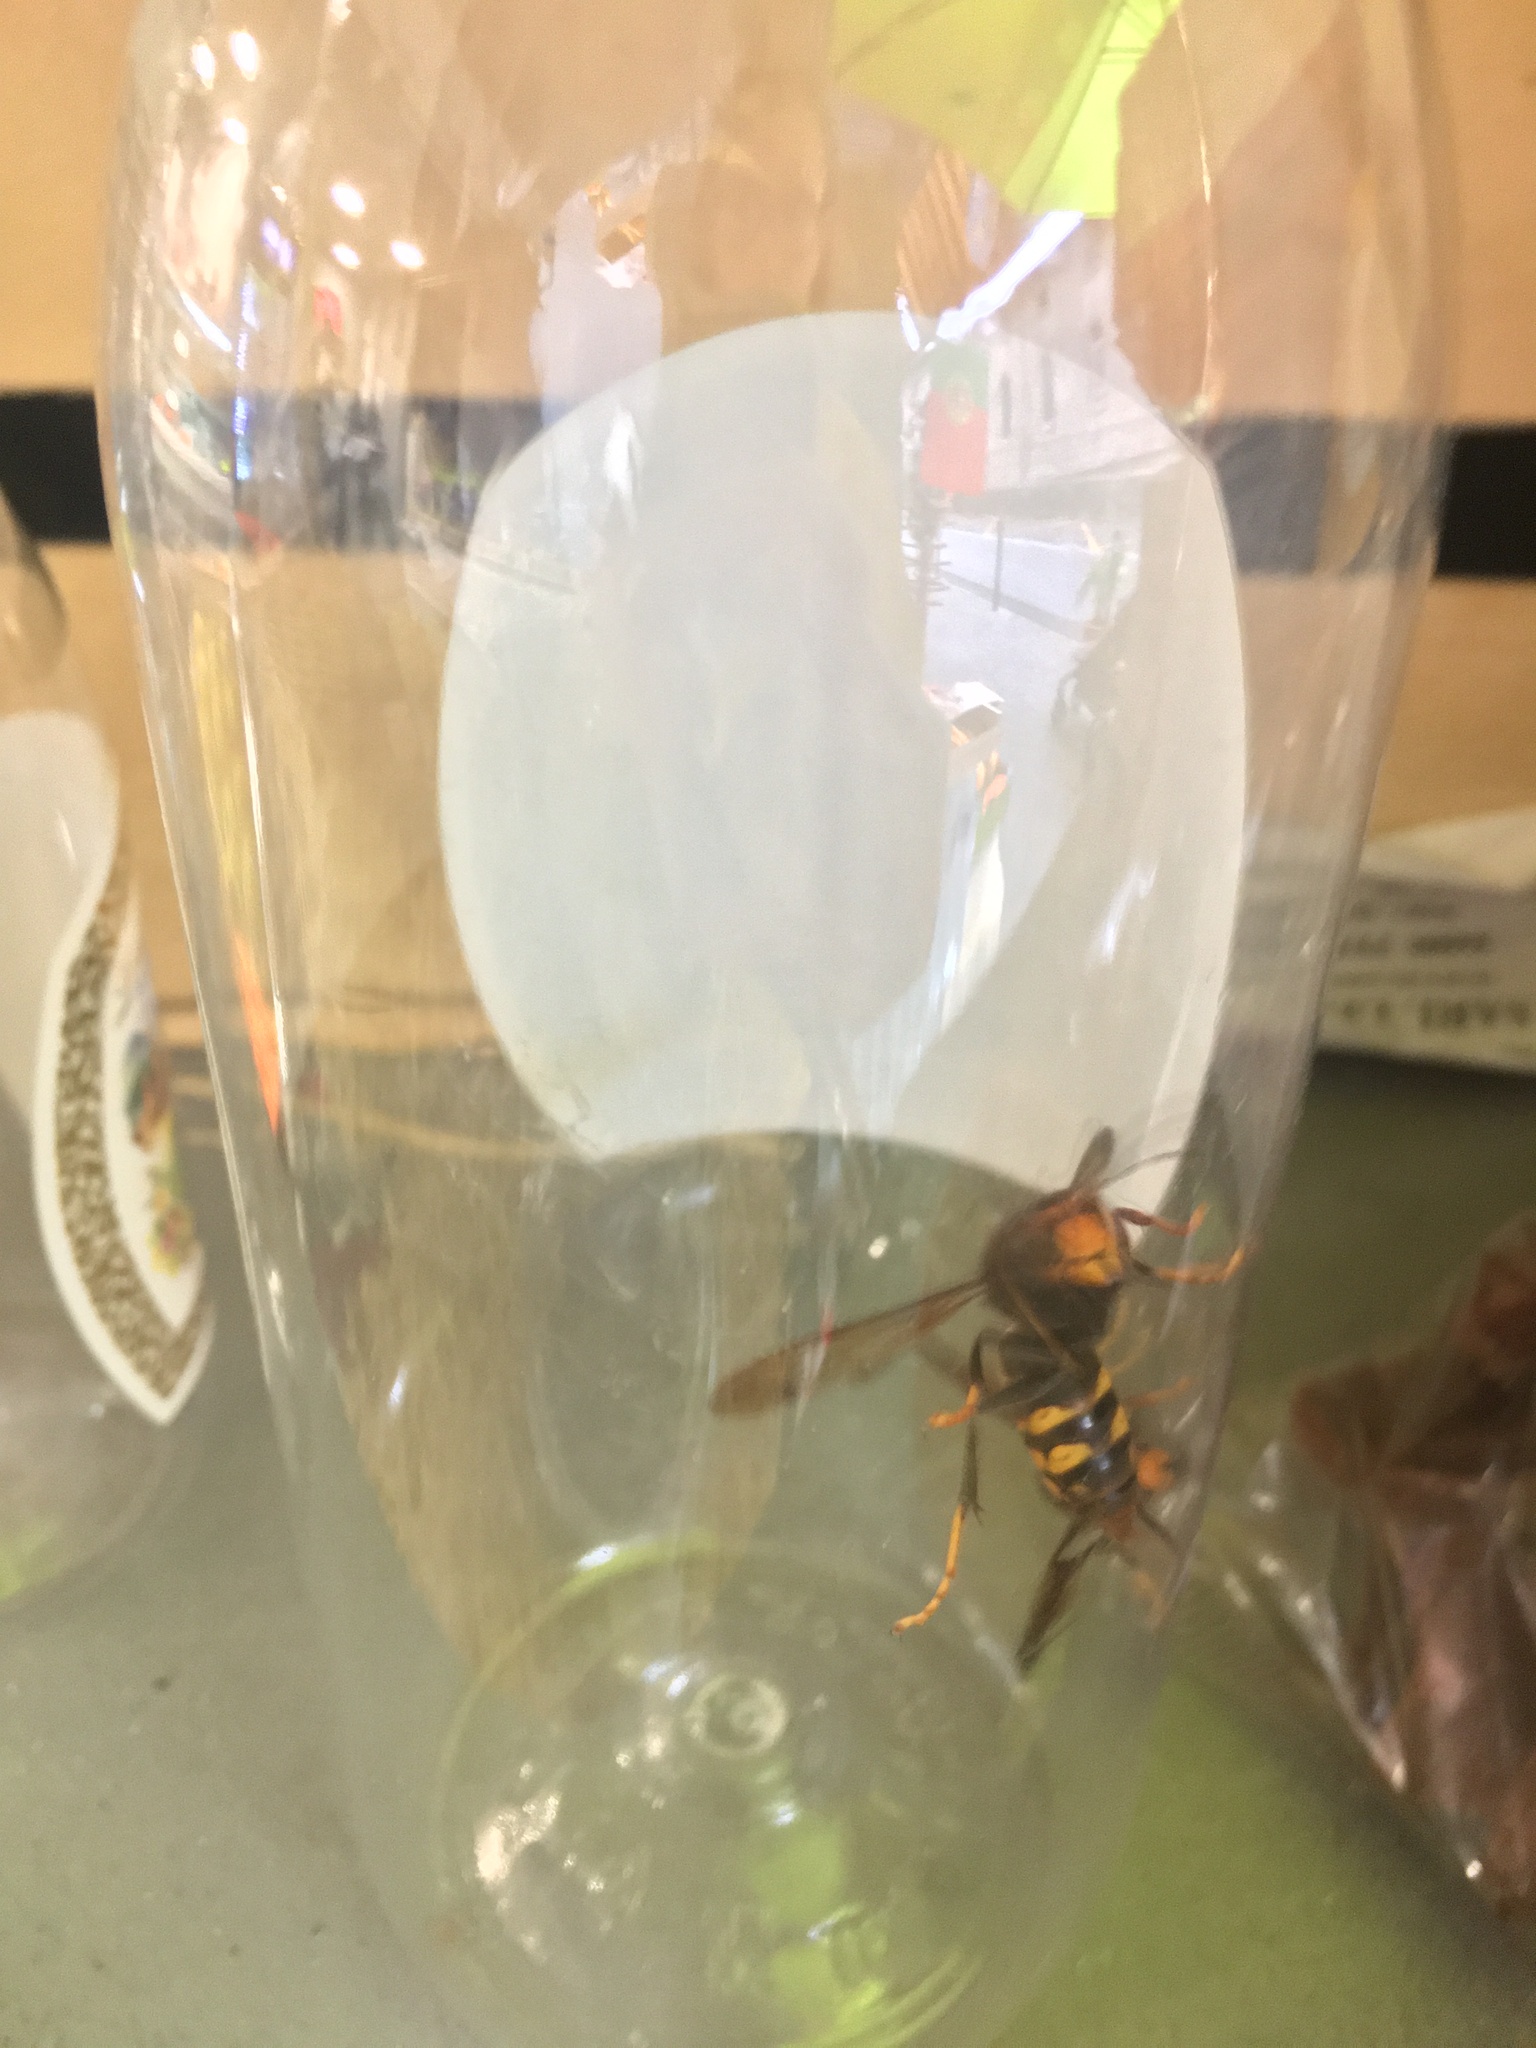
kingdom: Animalia
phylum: Arthropoda
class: Insecta
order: Hymenoptera
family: Vespidae
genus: Vespa
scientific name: Vespa velutina
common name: Asian hornet
